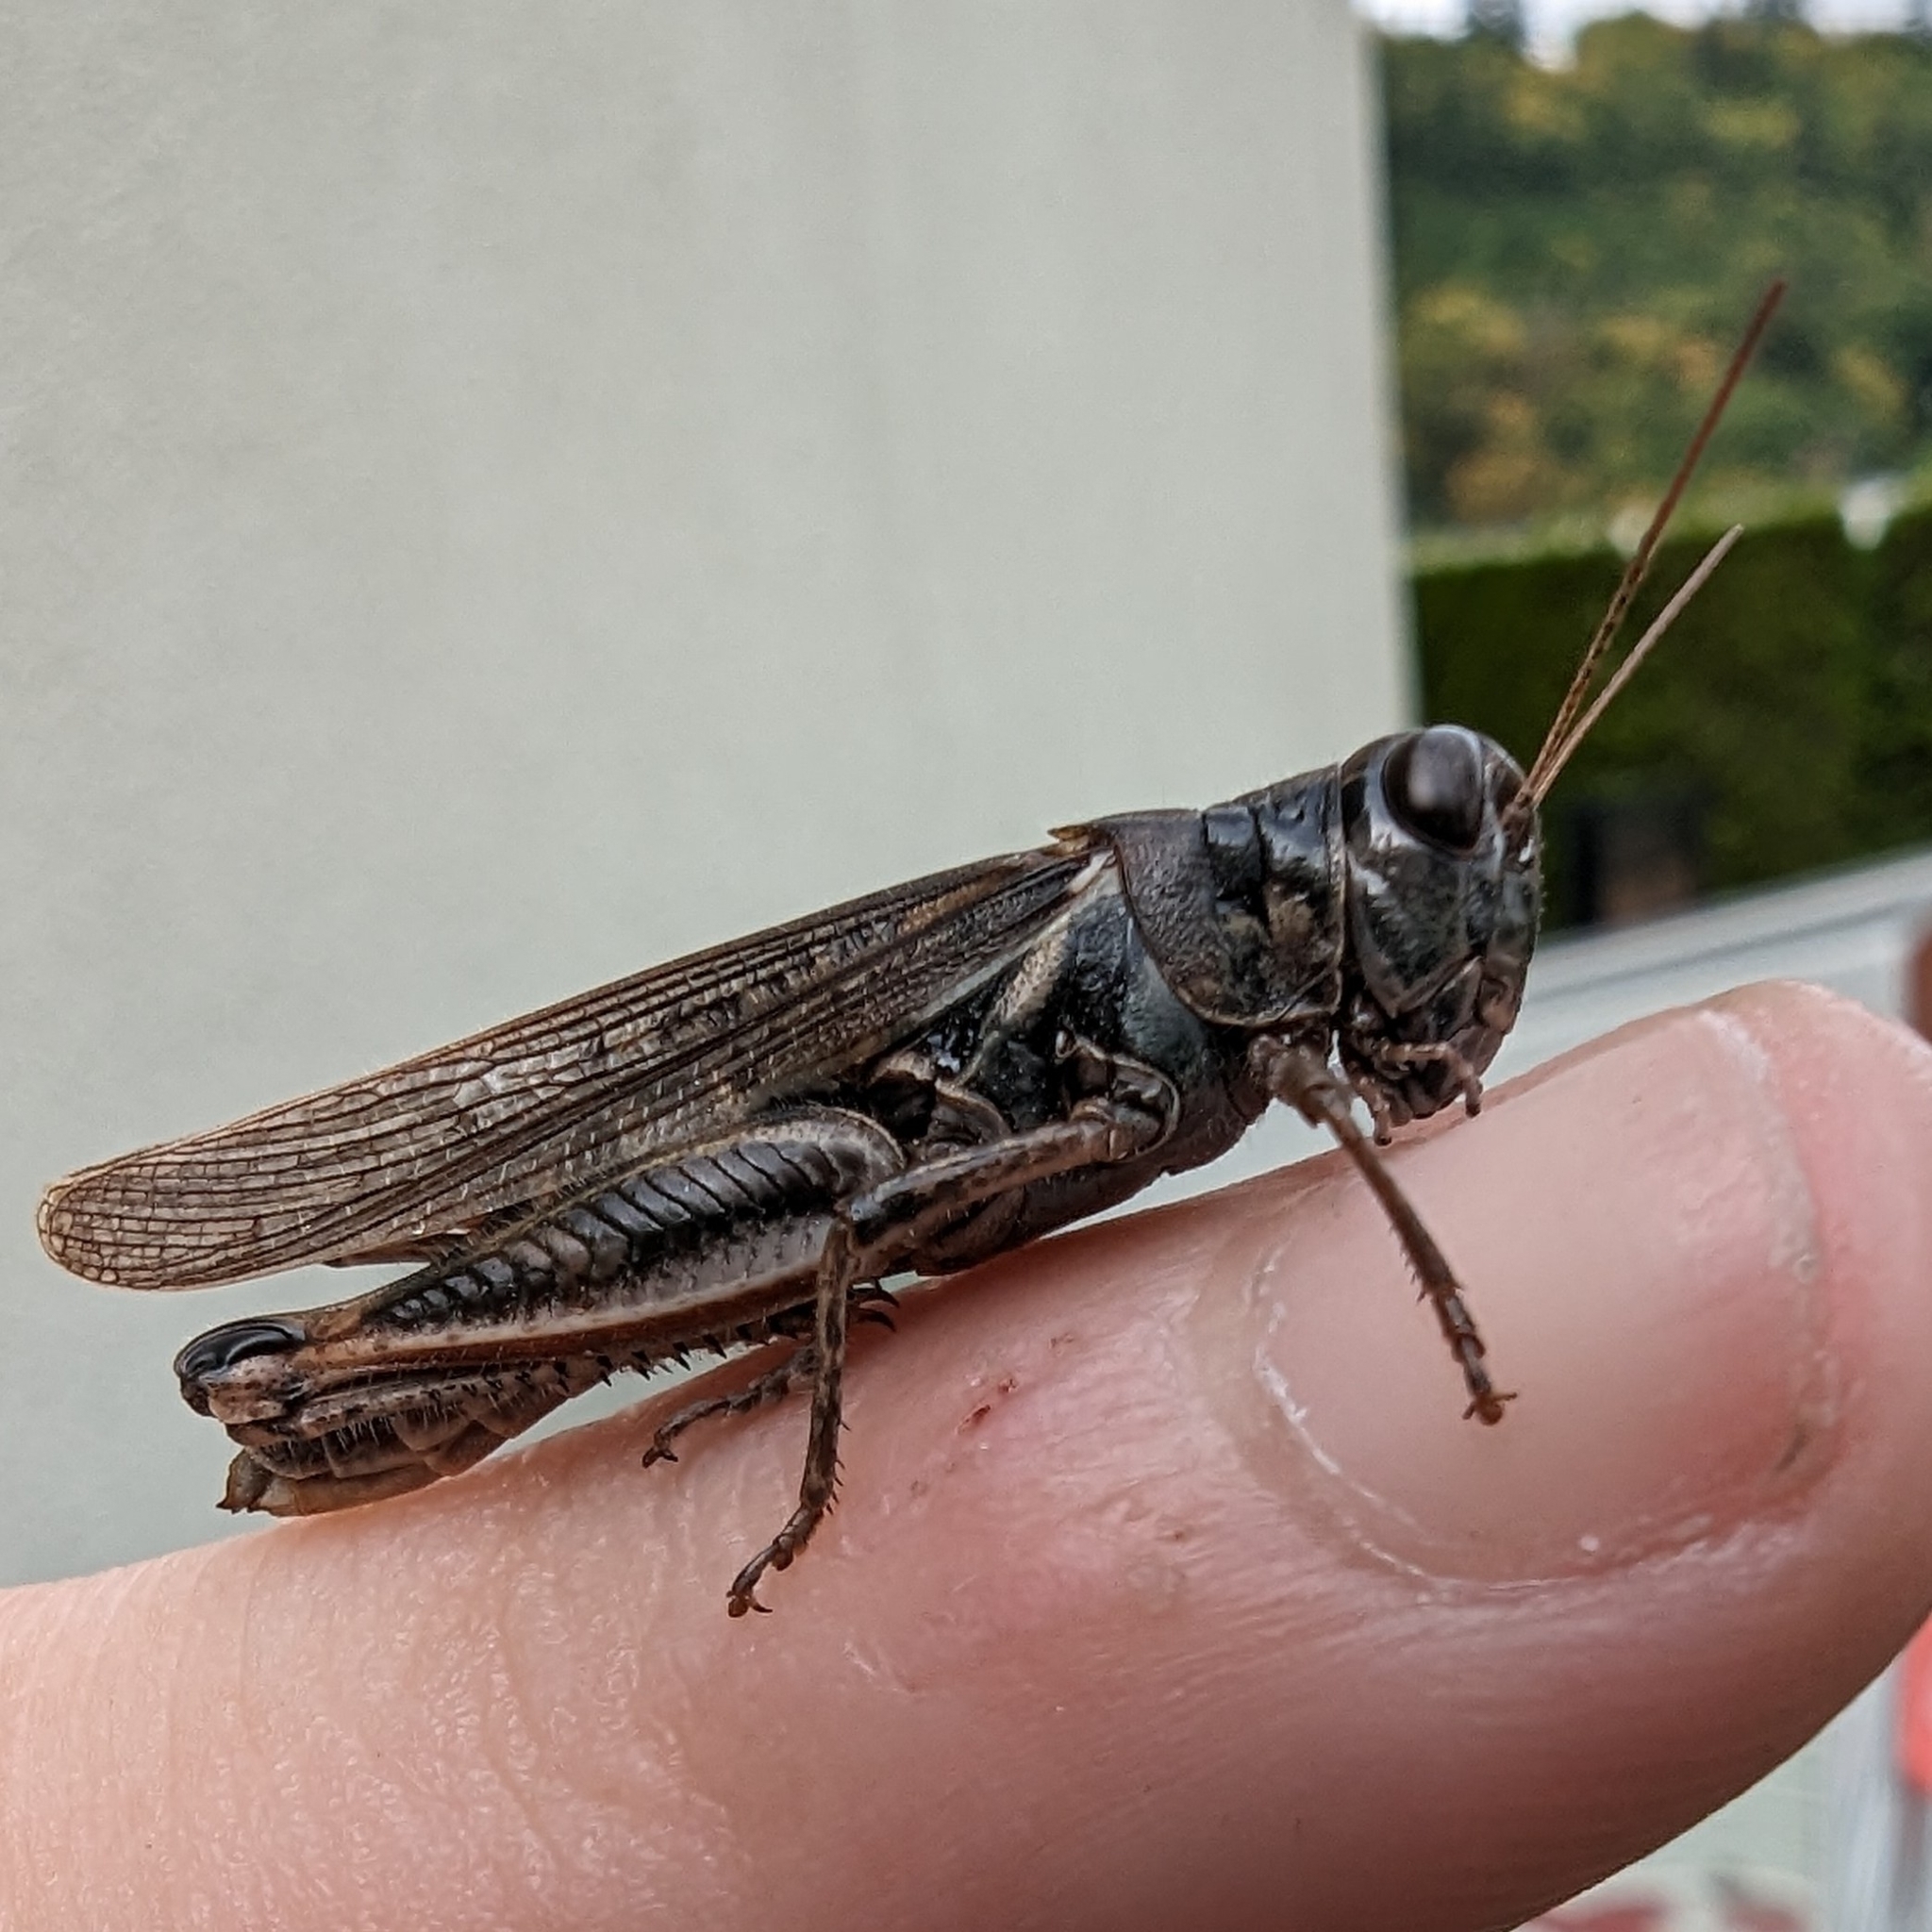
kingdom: Animalia
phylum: Arthropoda
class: Insecta
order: Orthoptera
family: Acrididae
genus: Melanoplus
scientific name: Melanoplus sanguinipes
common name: Migratory grasshopper
